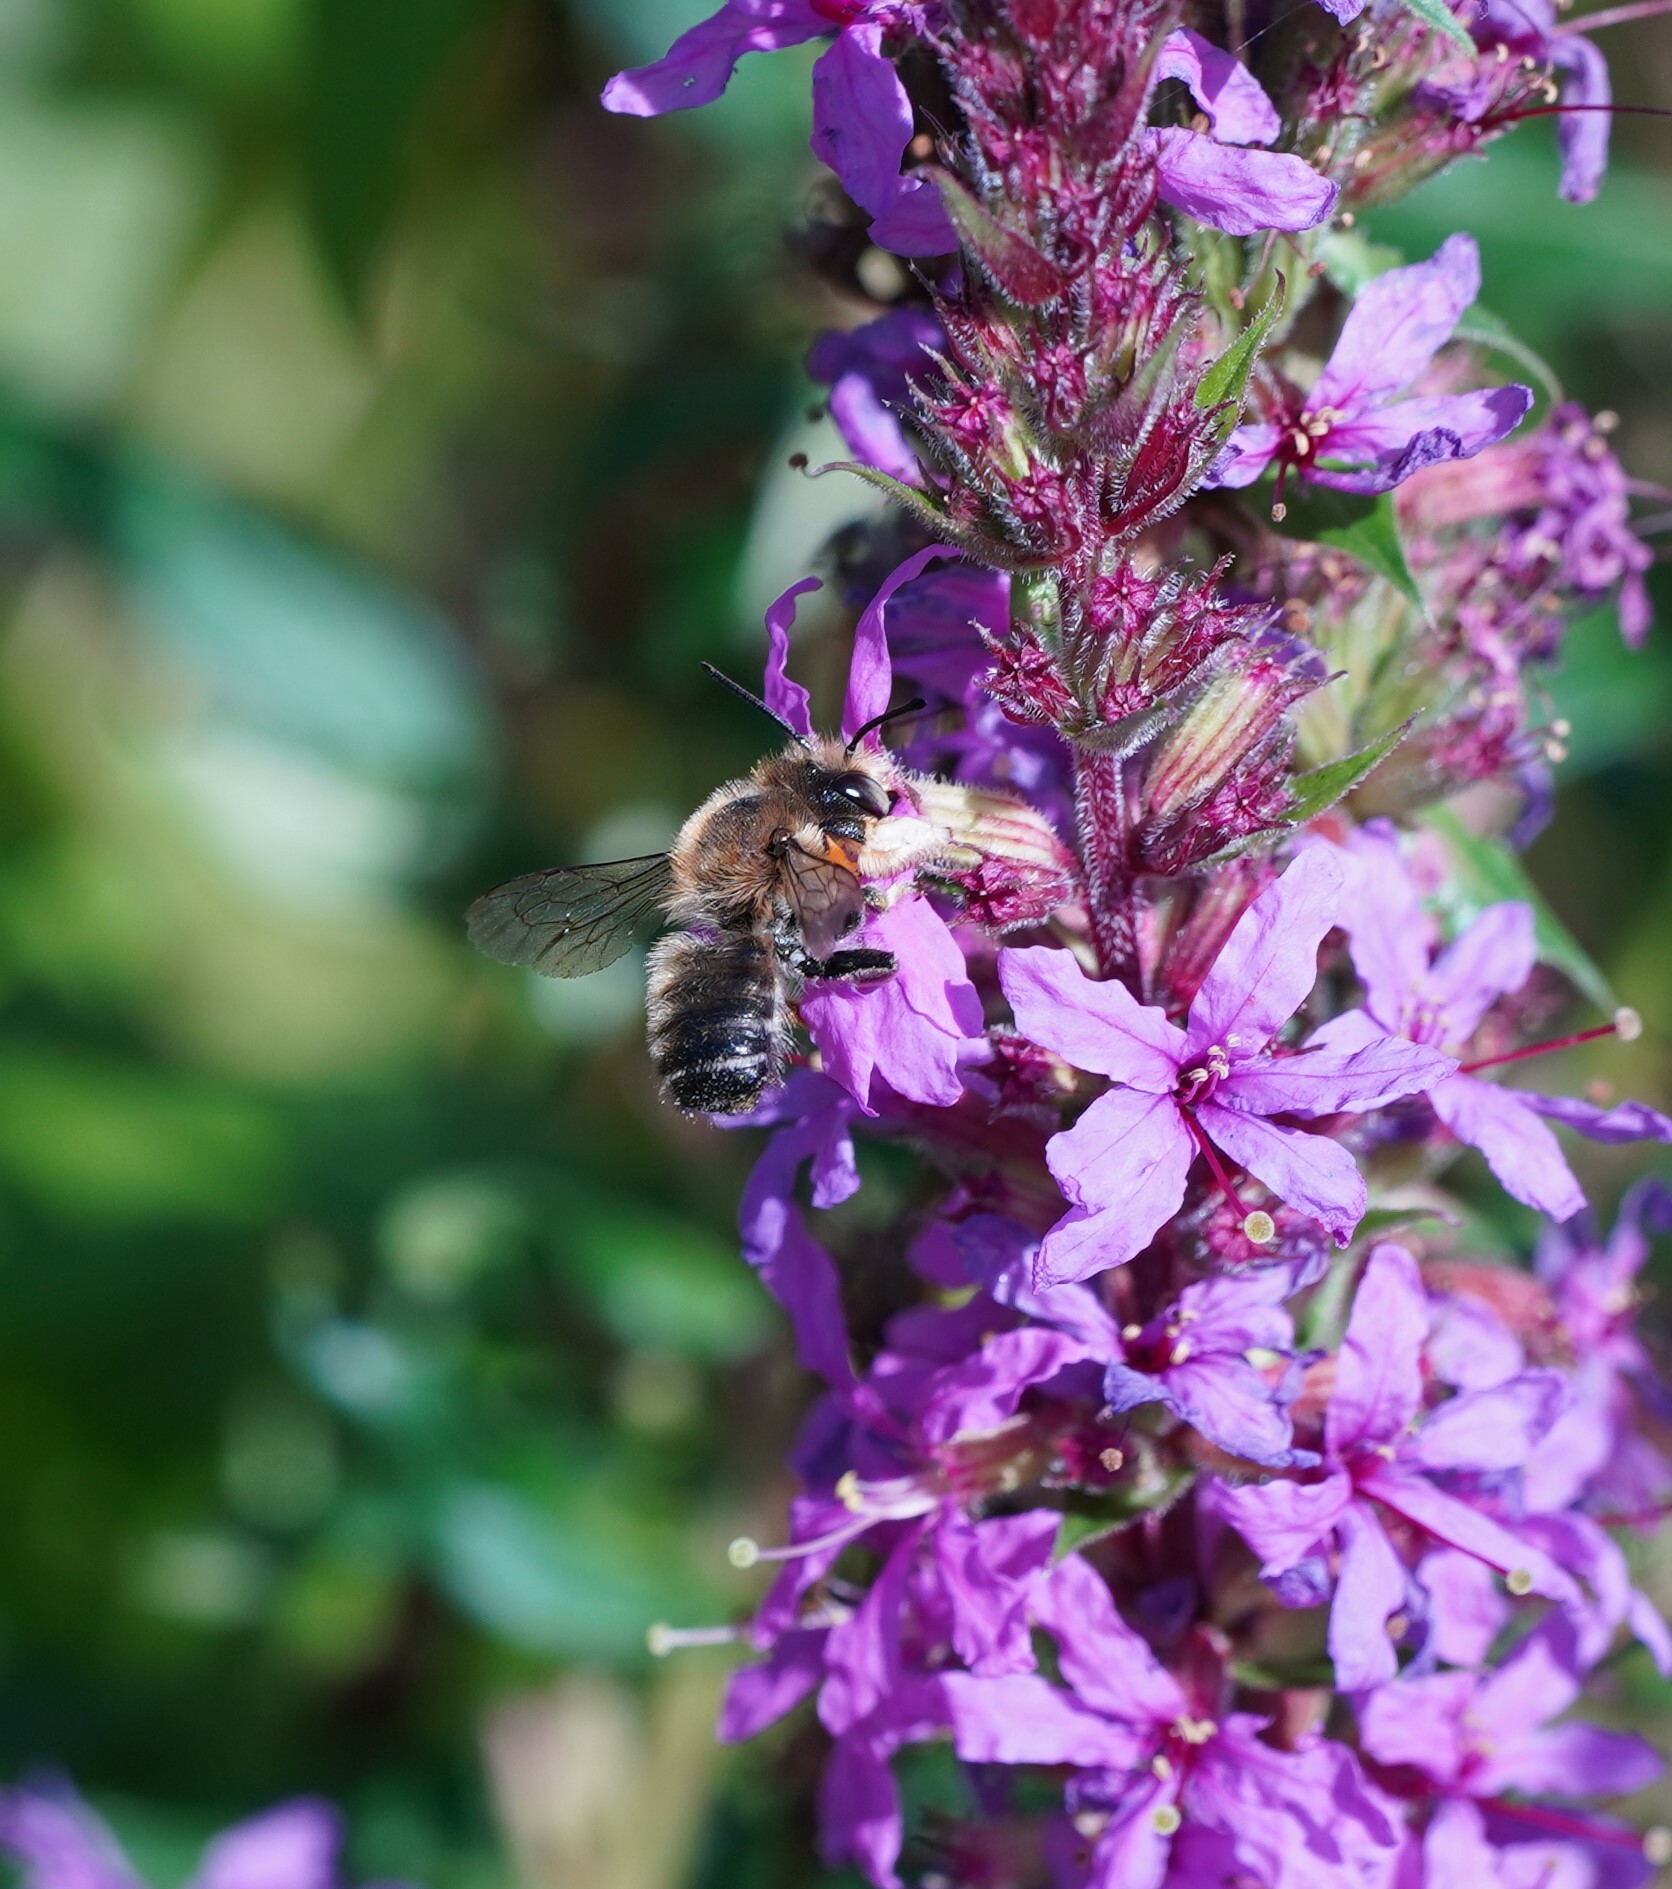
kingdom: Animalia
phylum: Arthropoda
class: Insecta
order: Hymenoptera
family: Megachilidae
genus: Megachile
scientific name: Megachile willughbiella
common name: Willughby's leafcutter bee
